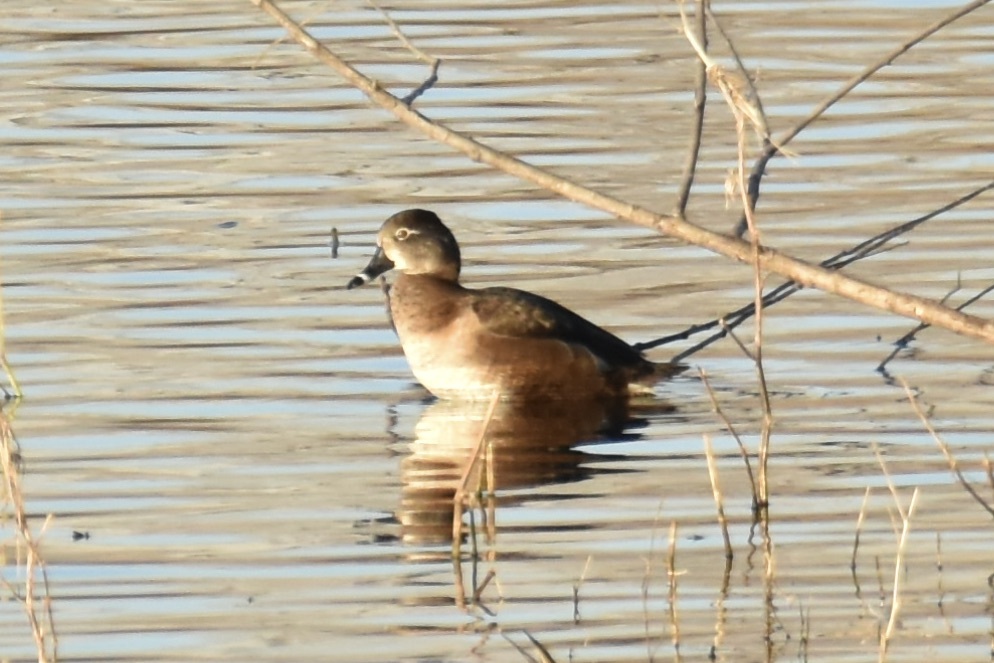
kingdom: Animalia
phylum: Chordata
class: Aves
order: Anseriformes
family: Anatidae
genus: Aythya
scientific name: Aythya collaris
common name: Ring-necked duck
